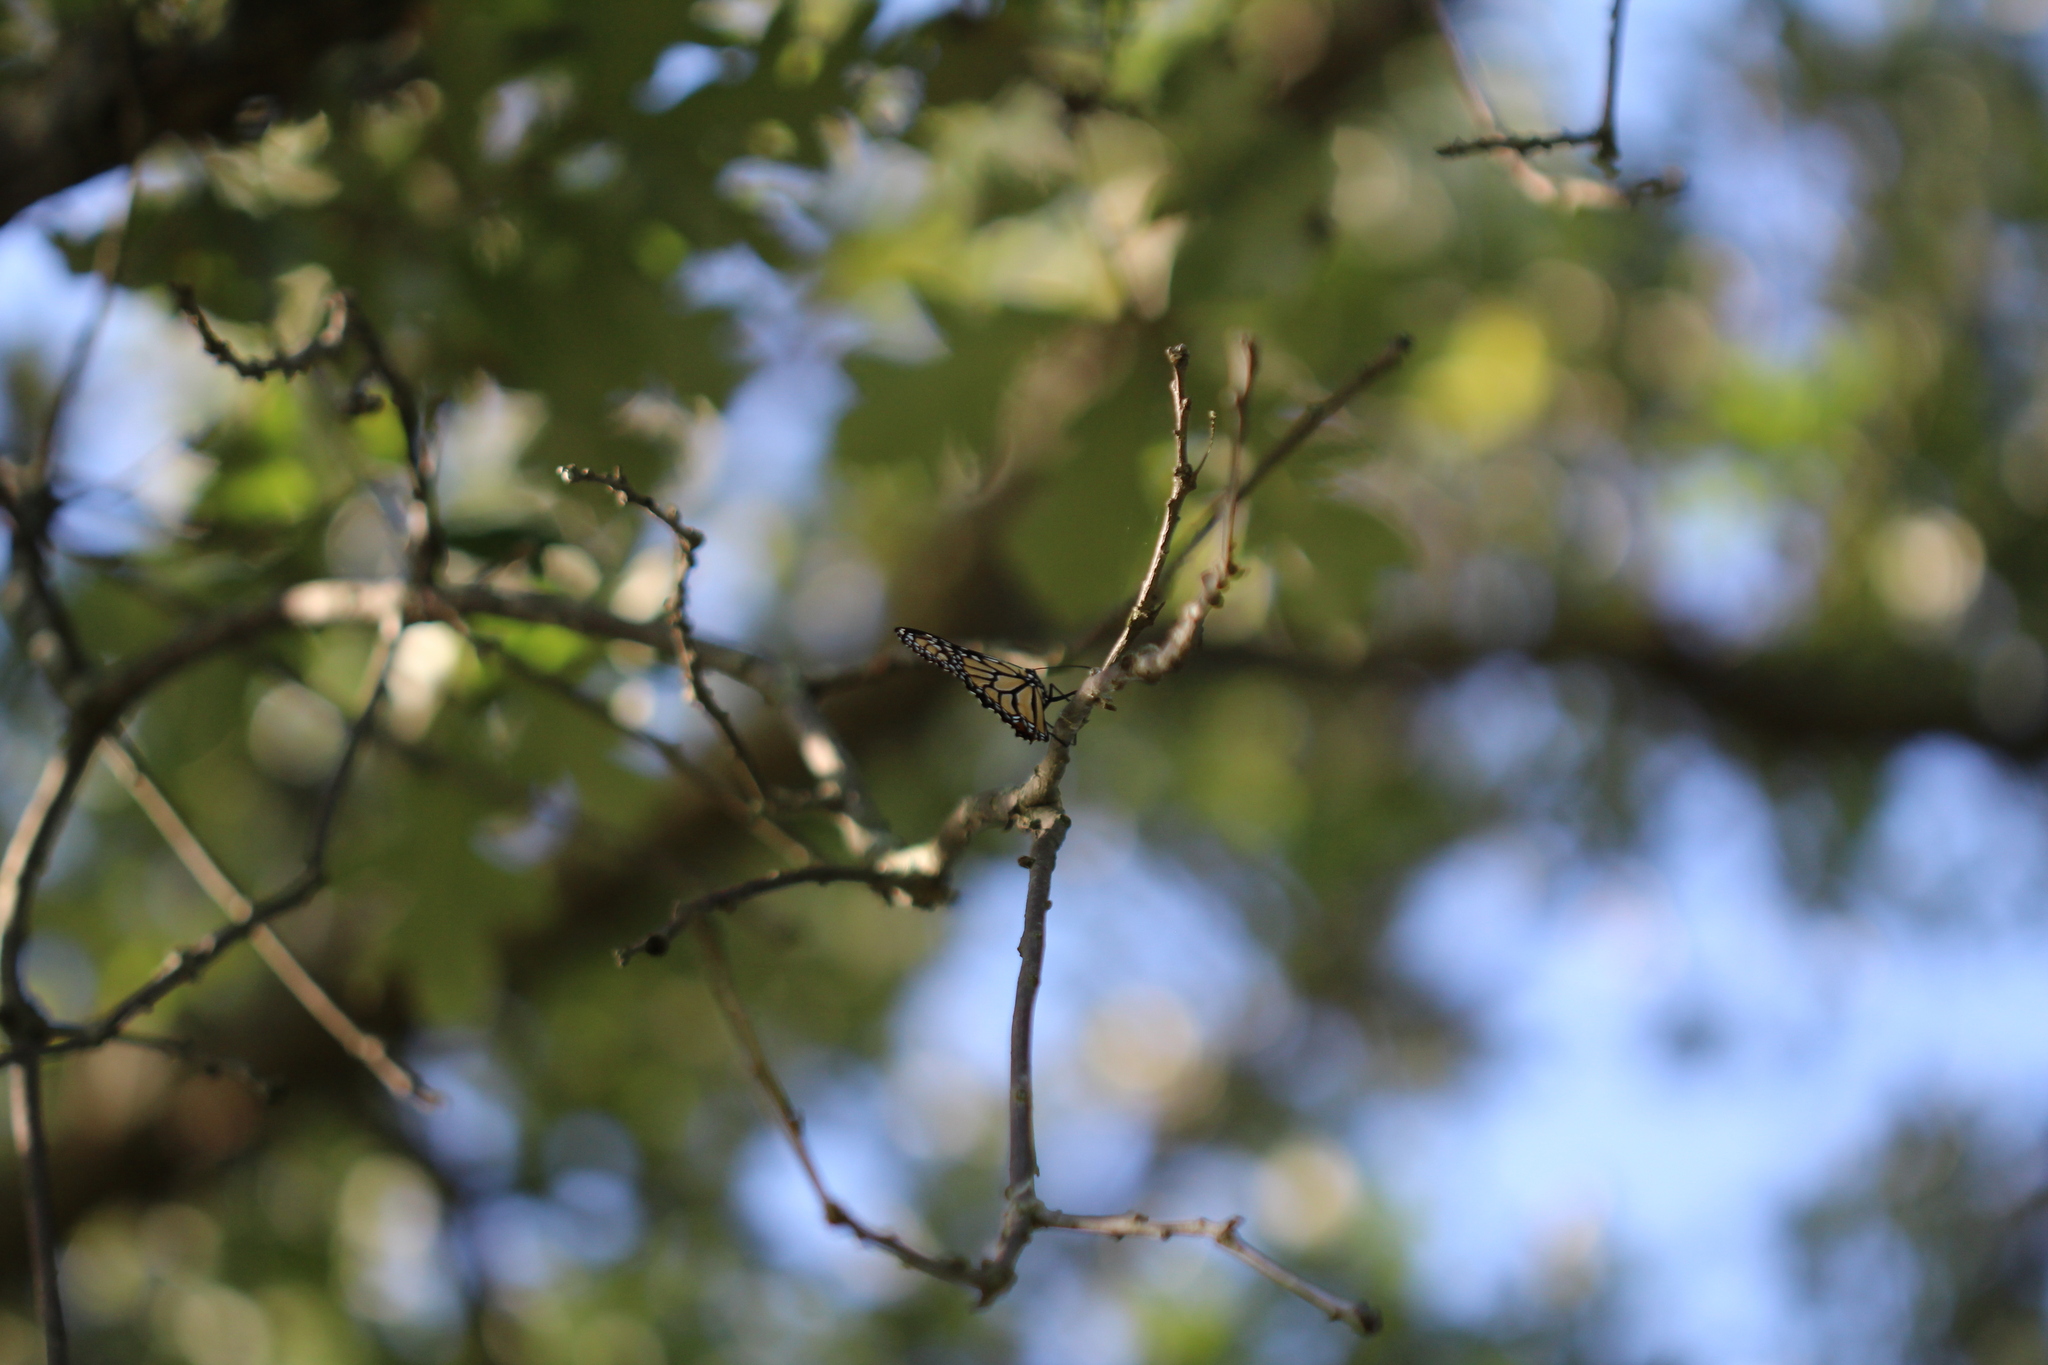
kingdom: Animalia
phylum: Arthropoda
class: Insecta
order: Lepidoptera
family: Nymphalidae
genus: Danaus
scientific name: Danaus plexippus
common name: Monarch
